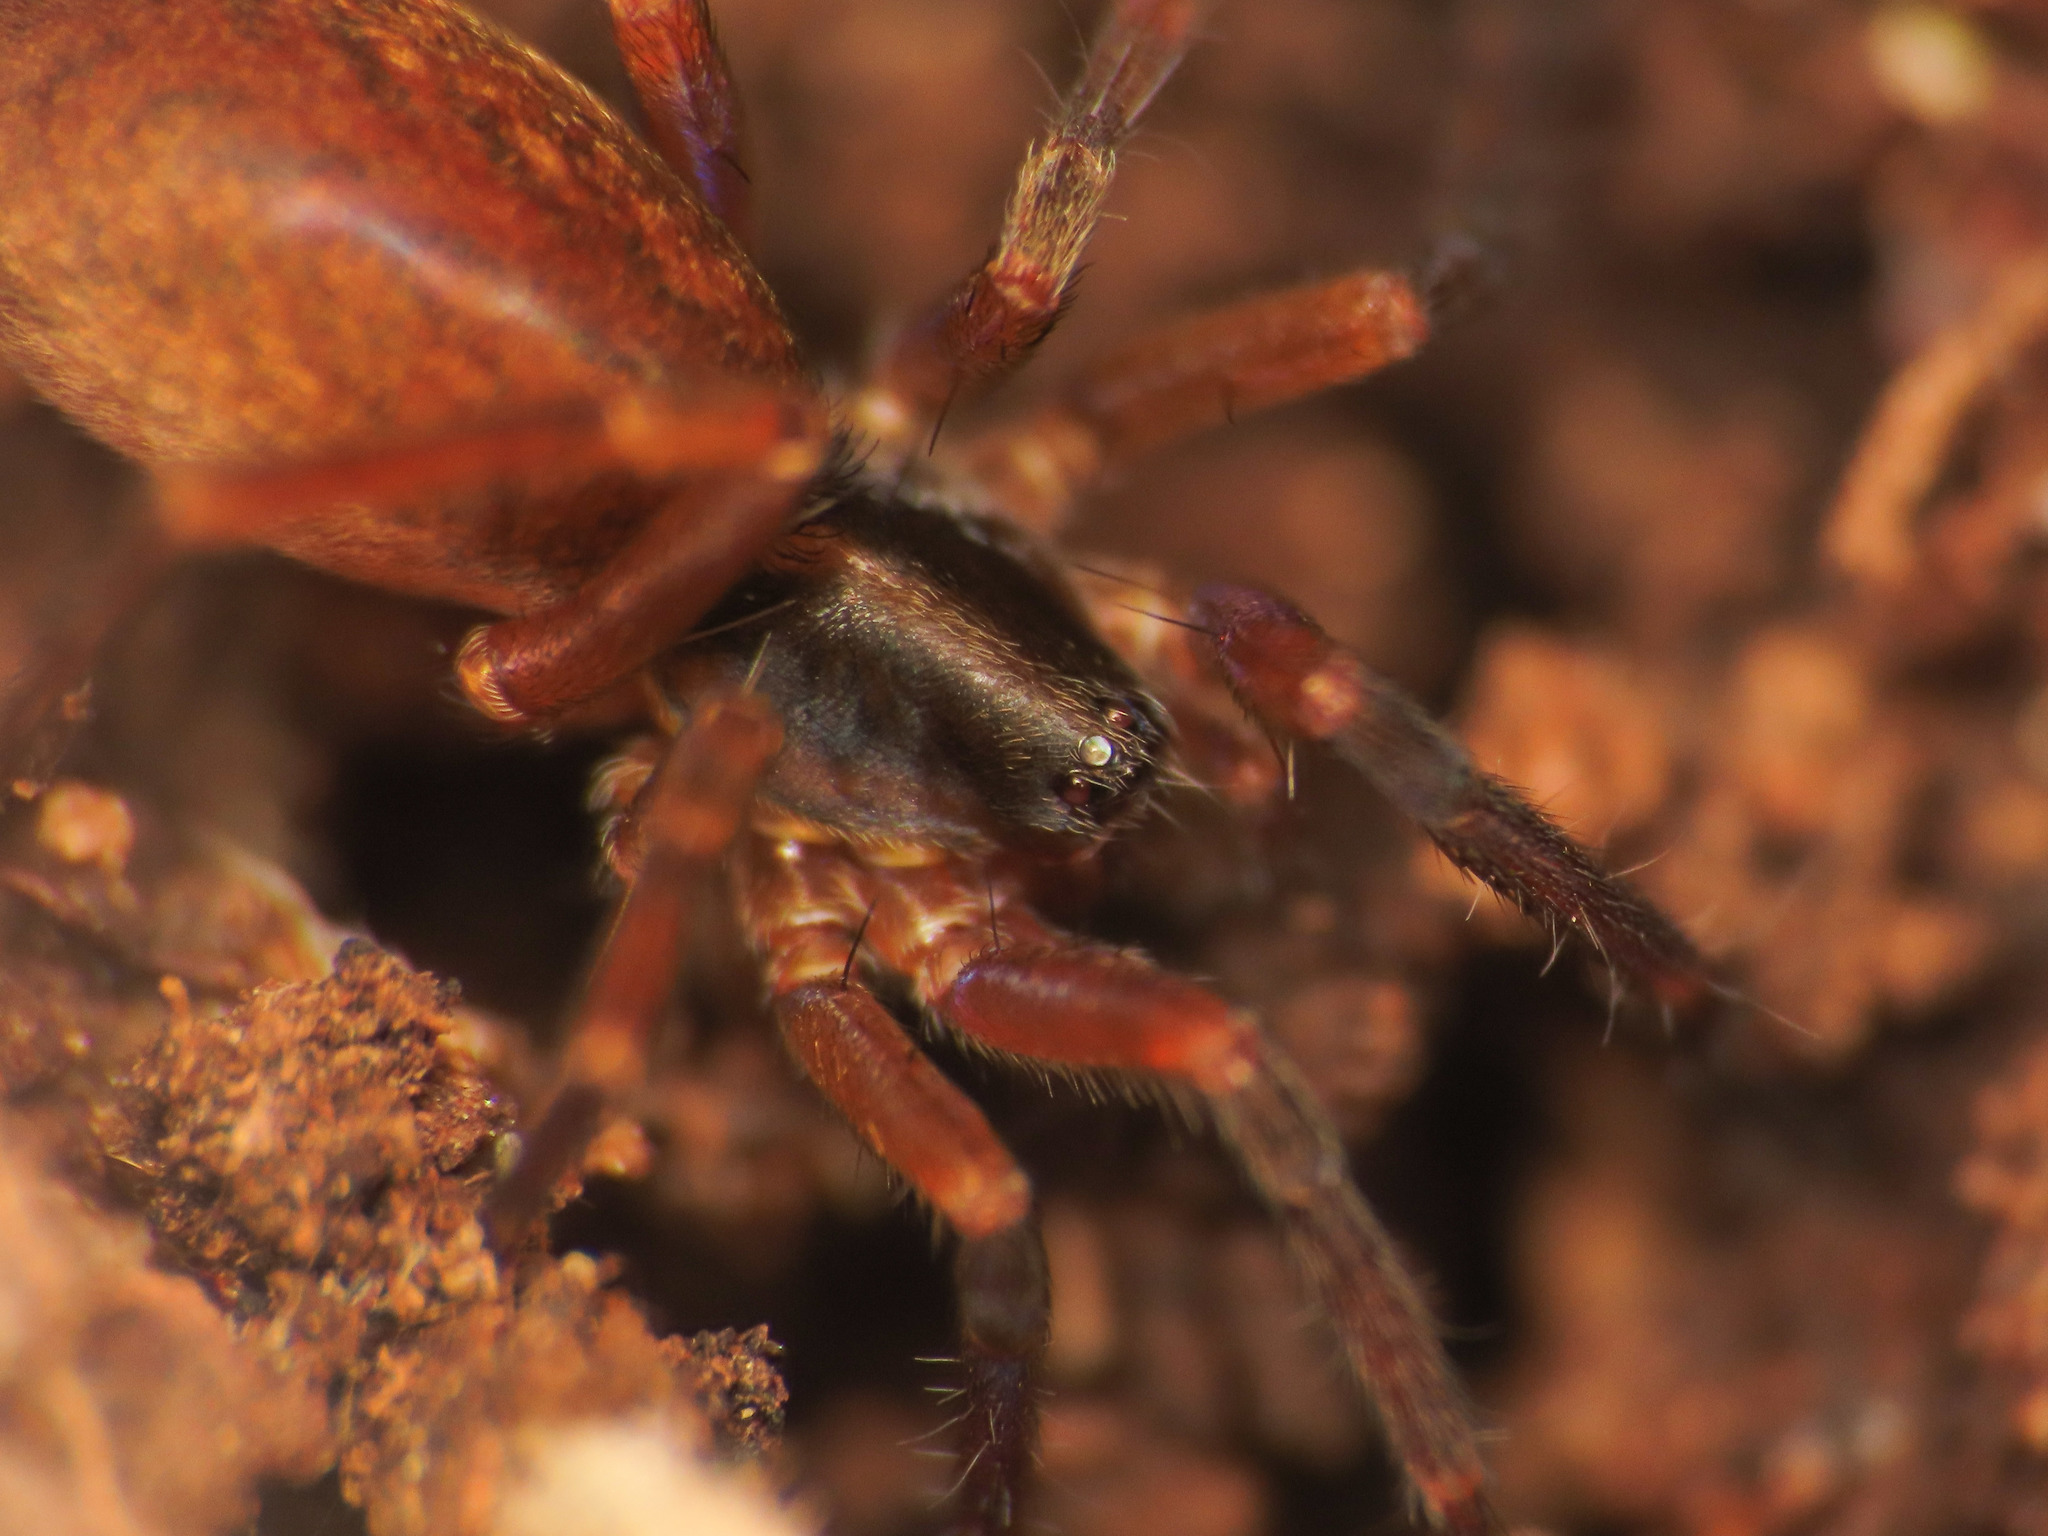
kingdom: Animalia
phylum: Arthropoda
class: Arachnida
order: Araneae
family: Liocranidae
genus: Scotina
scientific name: Scotina celans
